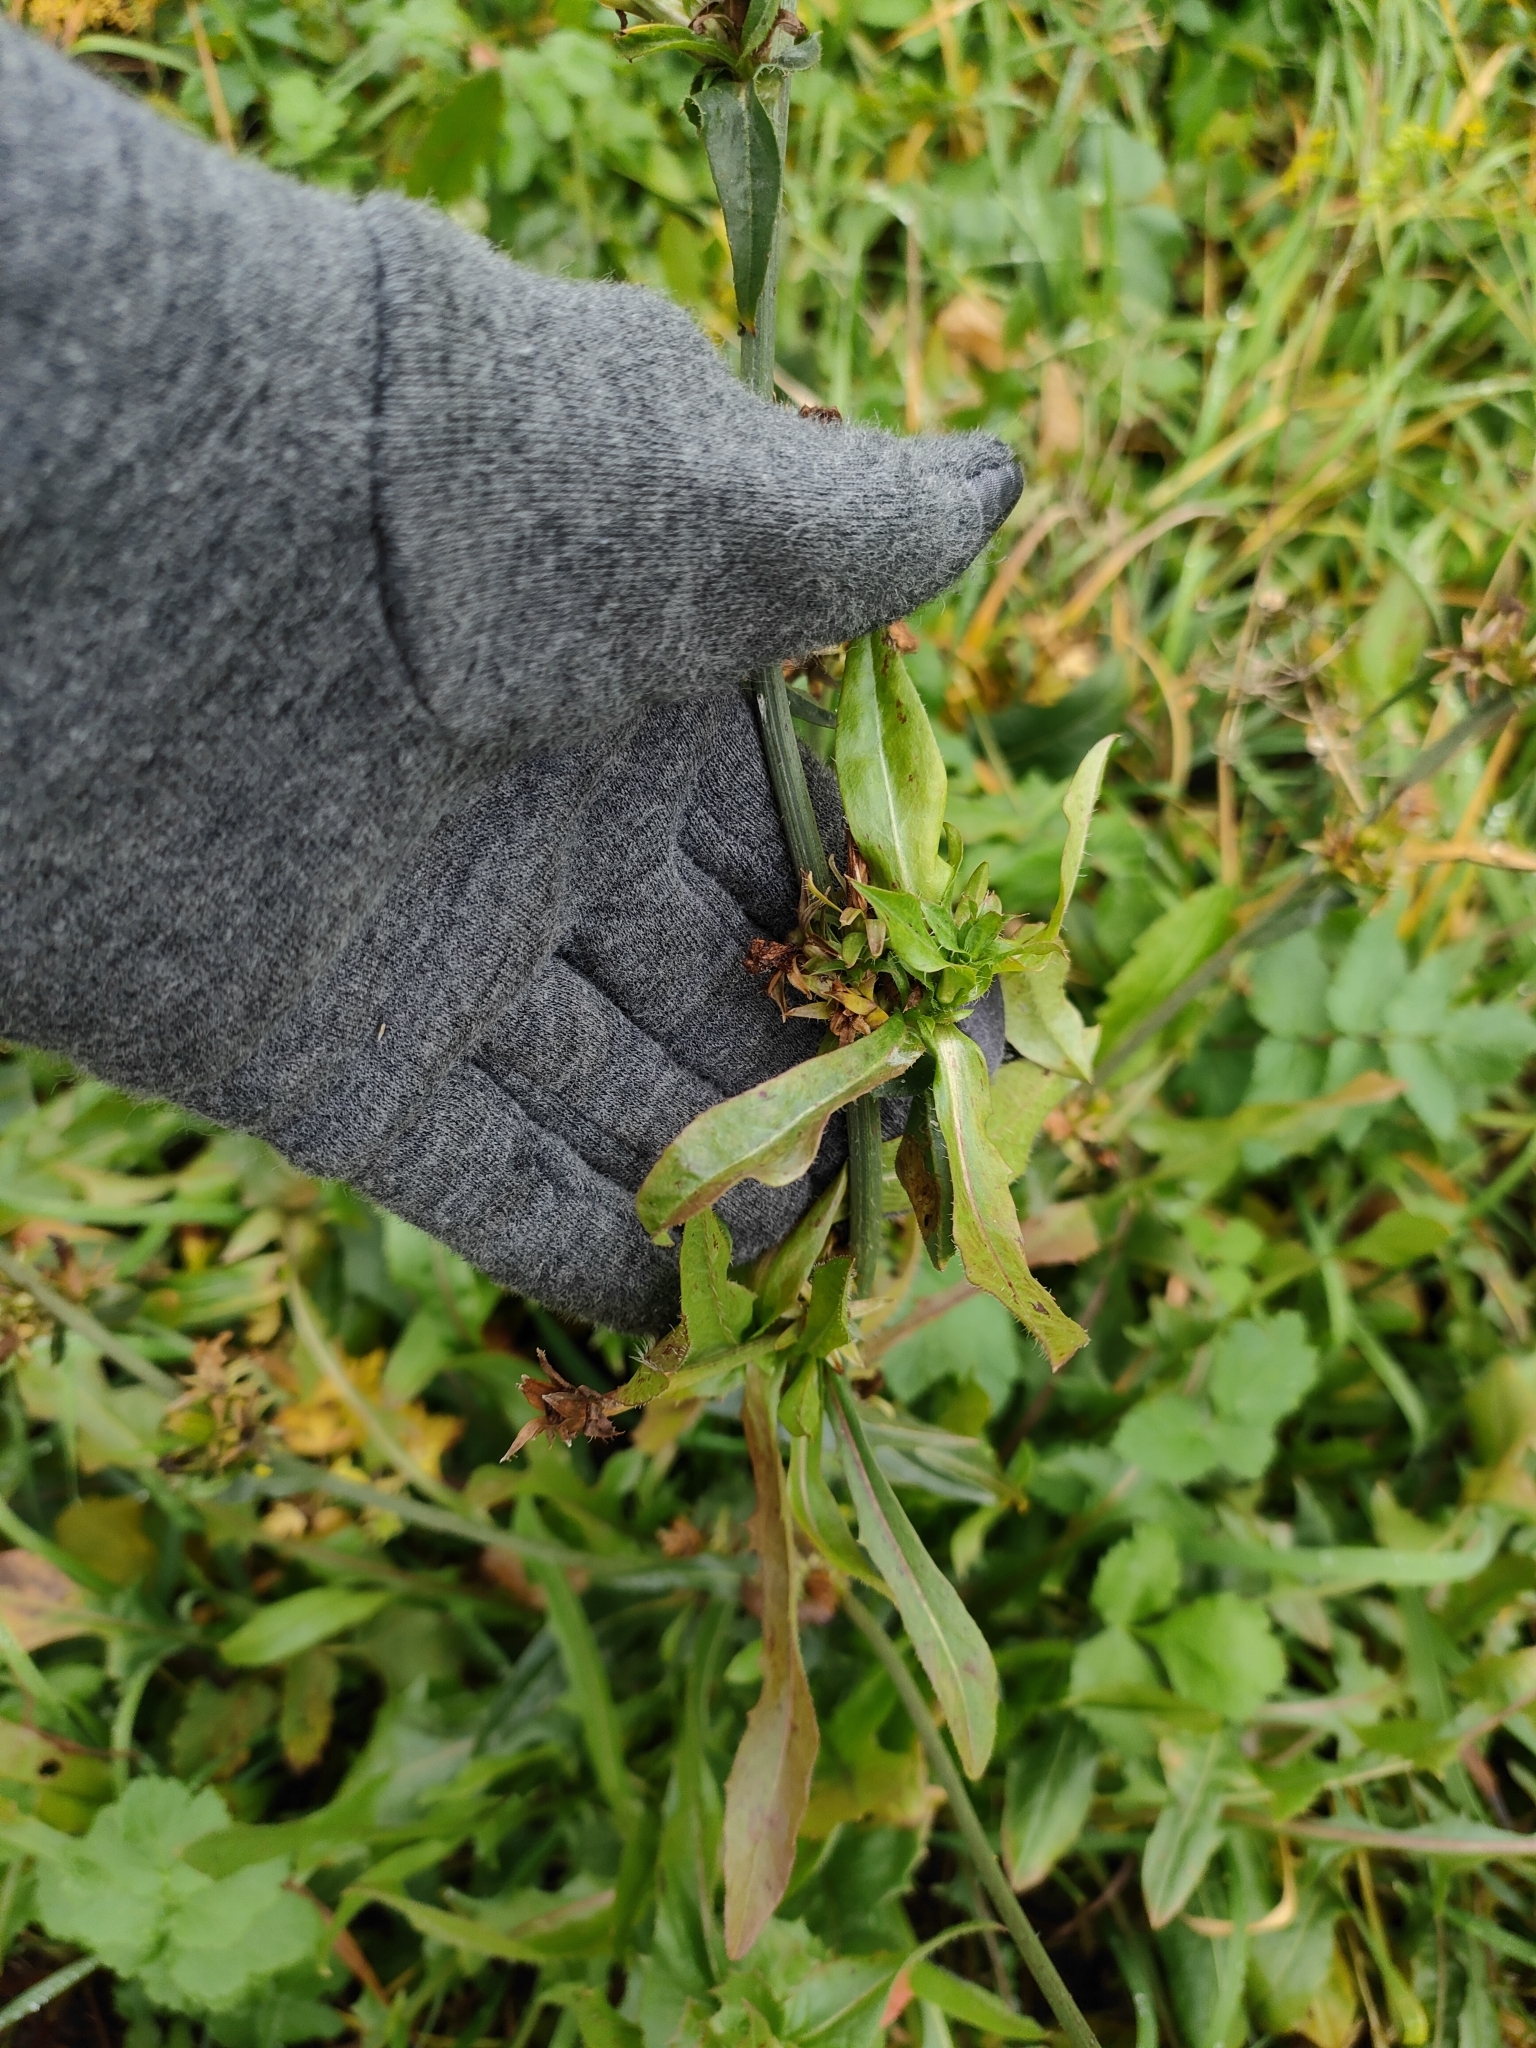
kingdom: Plantae
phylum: Tracheophyta
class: Magnoliopsida
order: Asterales
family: Asteraceae
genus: Cichorium
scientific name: Cichorium intybus
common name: Chicory
